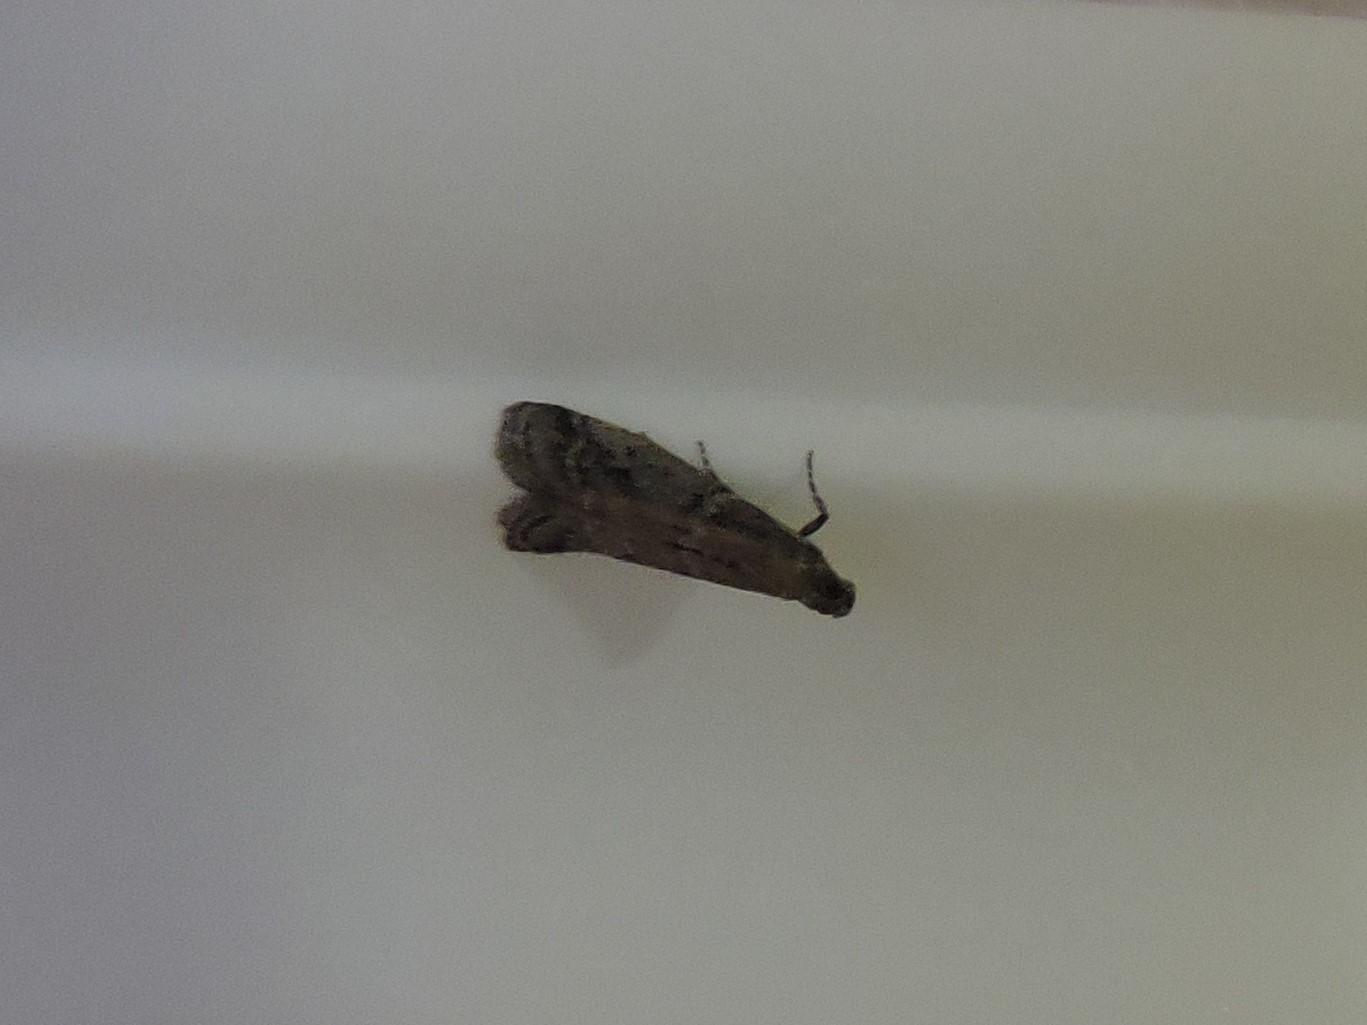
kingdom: Animalia
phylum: Arthropoda
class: Insecta
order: Lepidoptera
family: Pyralidae
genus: Ephestia
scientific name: Ephestia elutella
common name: Cacao moth
